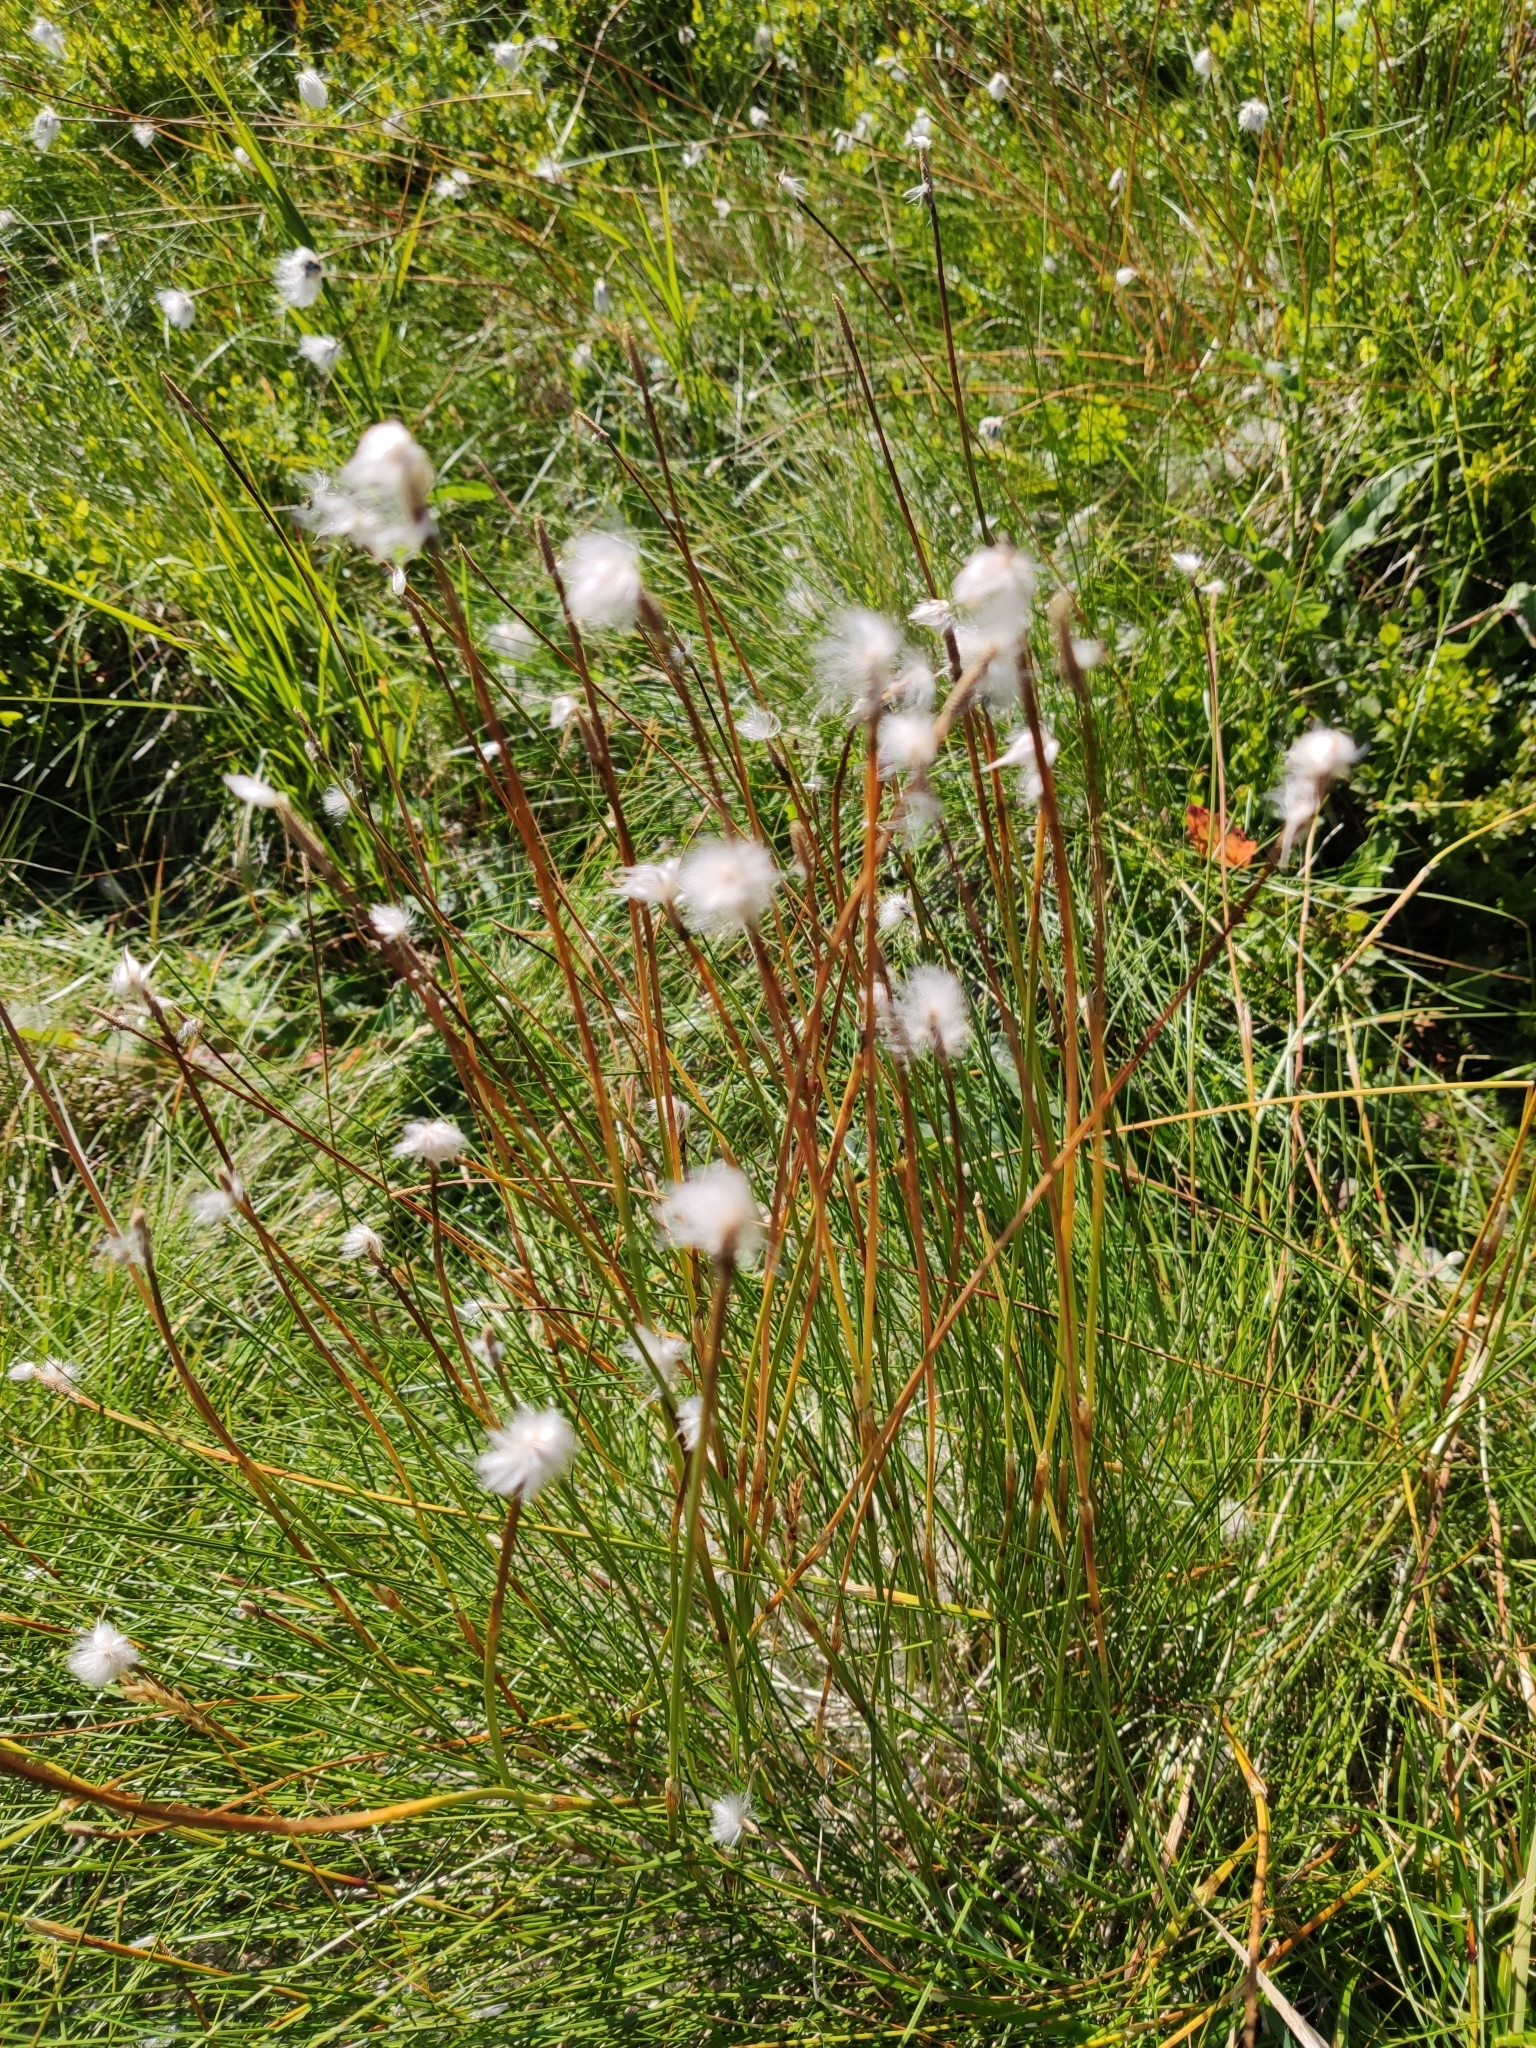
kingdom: Plantae
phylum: Tracheophyta
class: Liliopsida
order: Poales
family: Cyperaceae
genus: Eriophorum
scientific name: Eriophorum vaginatum
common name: Hare's-tail cottongrass
